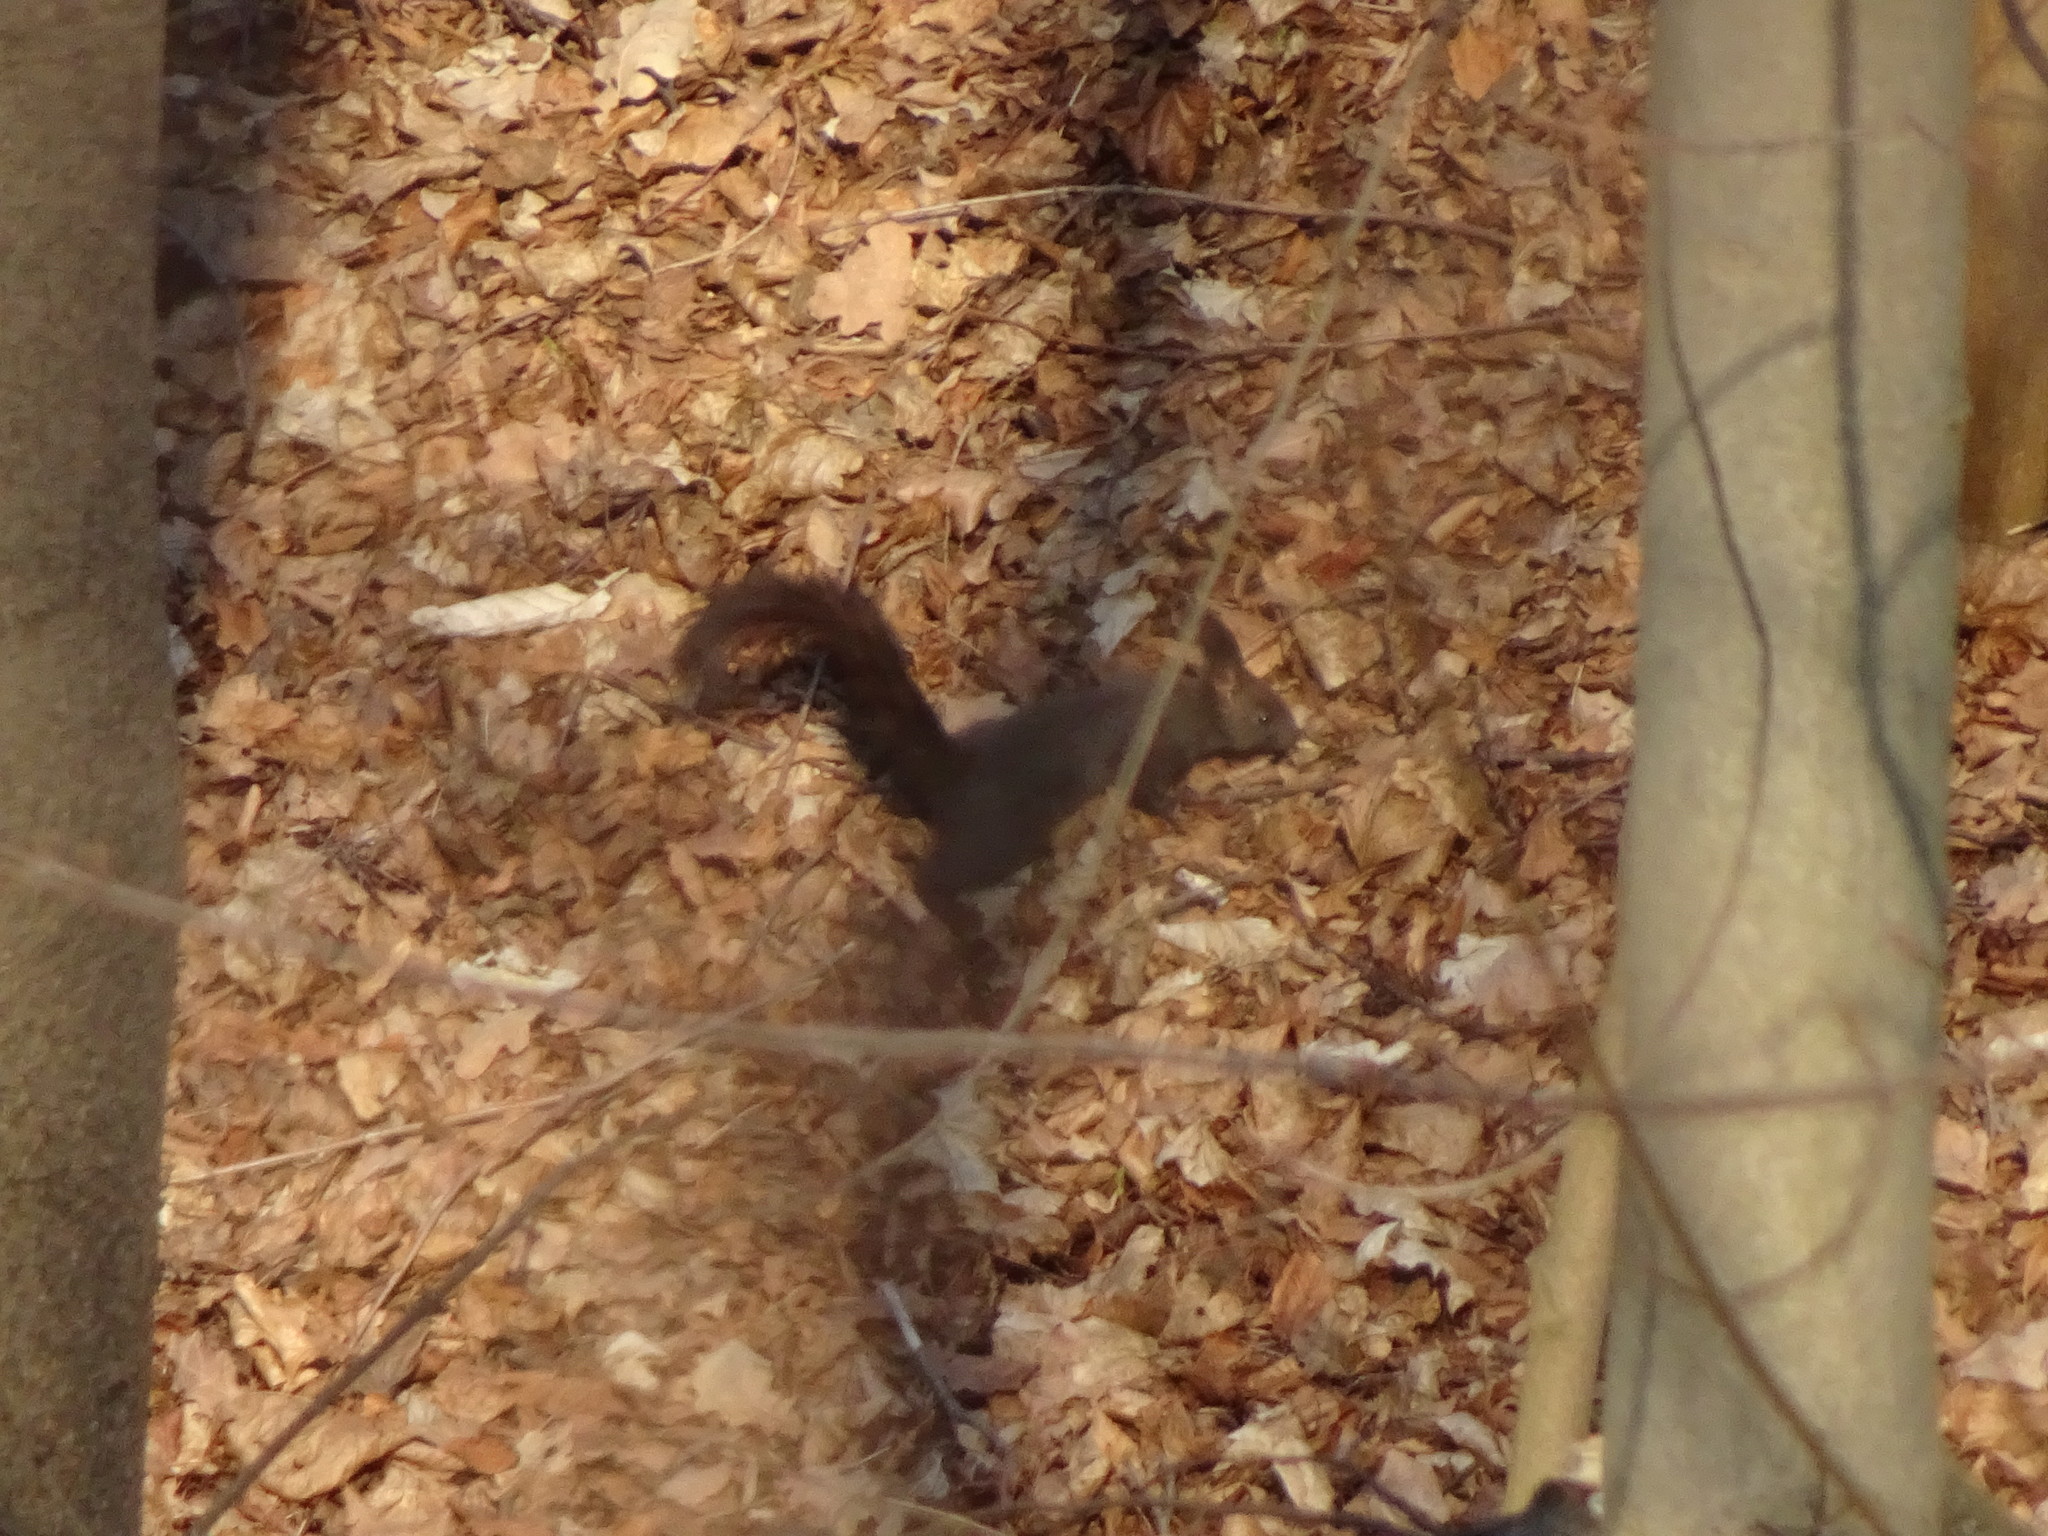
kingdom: Animalia
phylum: Chordata
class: Mammalia
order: Rodentia
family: Sciuridae
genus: Sciurus
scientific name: Sciurus vulgaris
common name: Eurasian red squirrel
